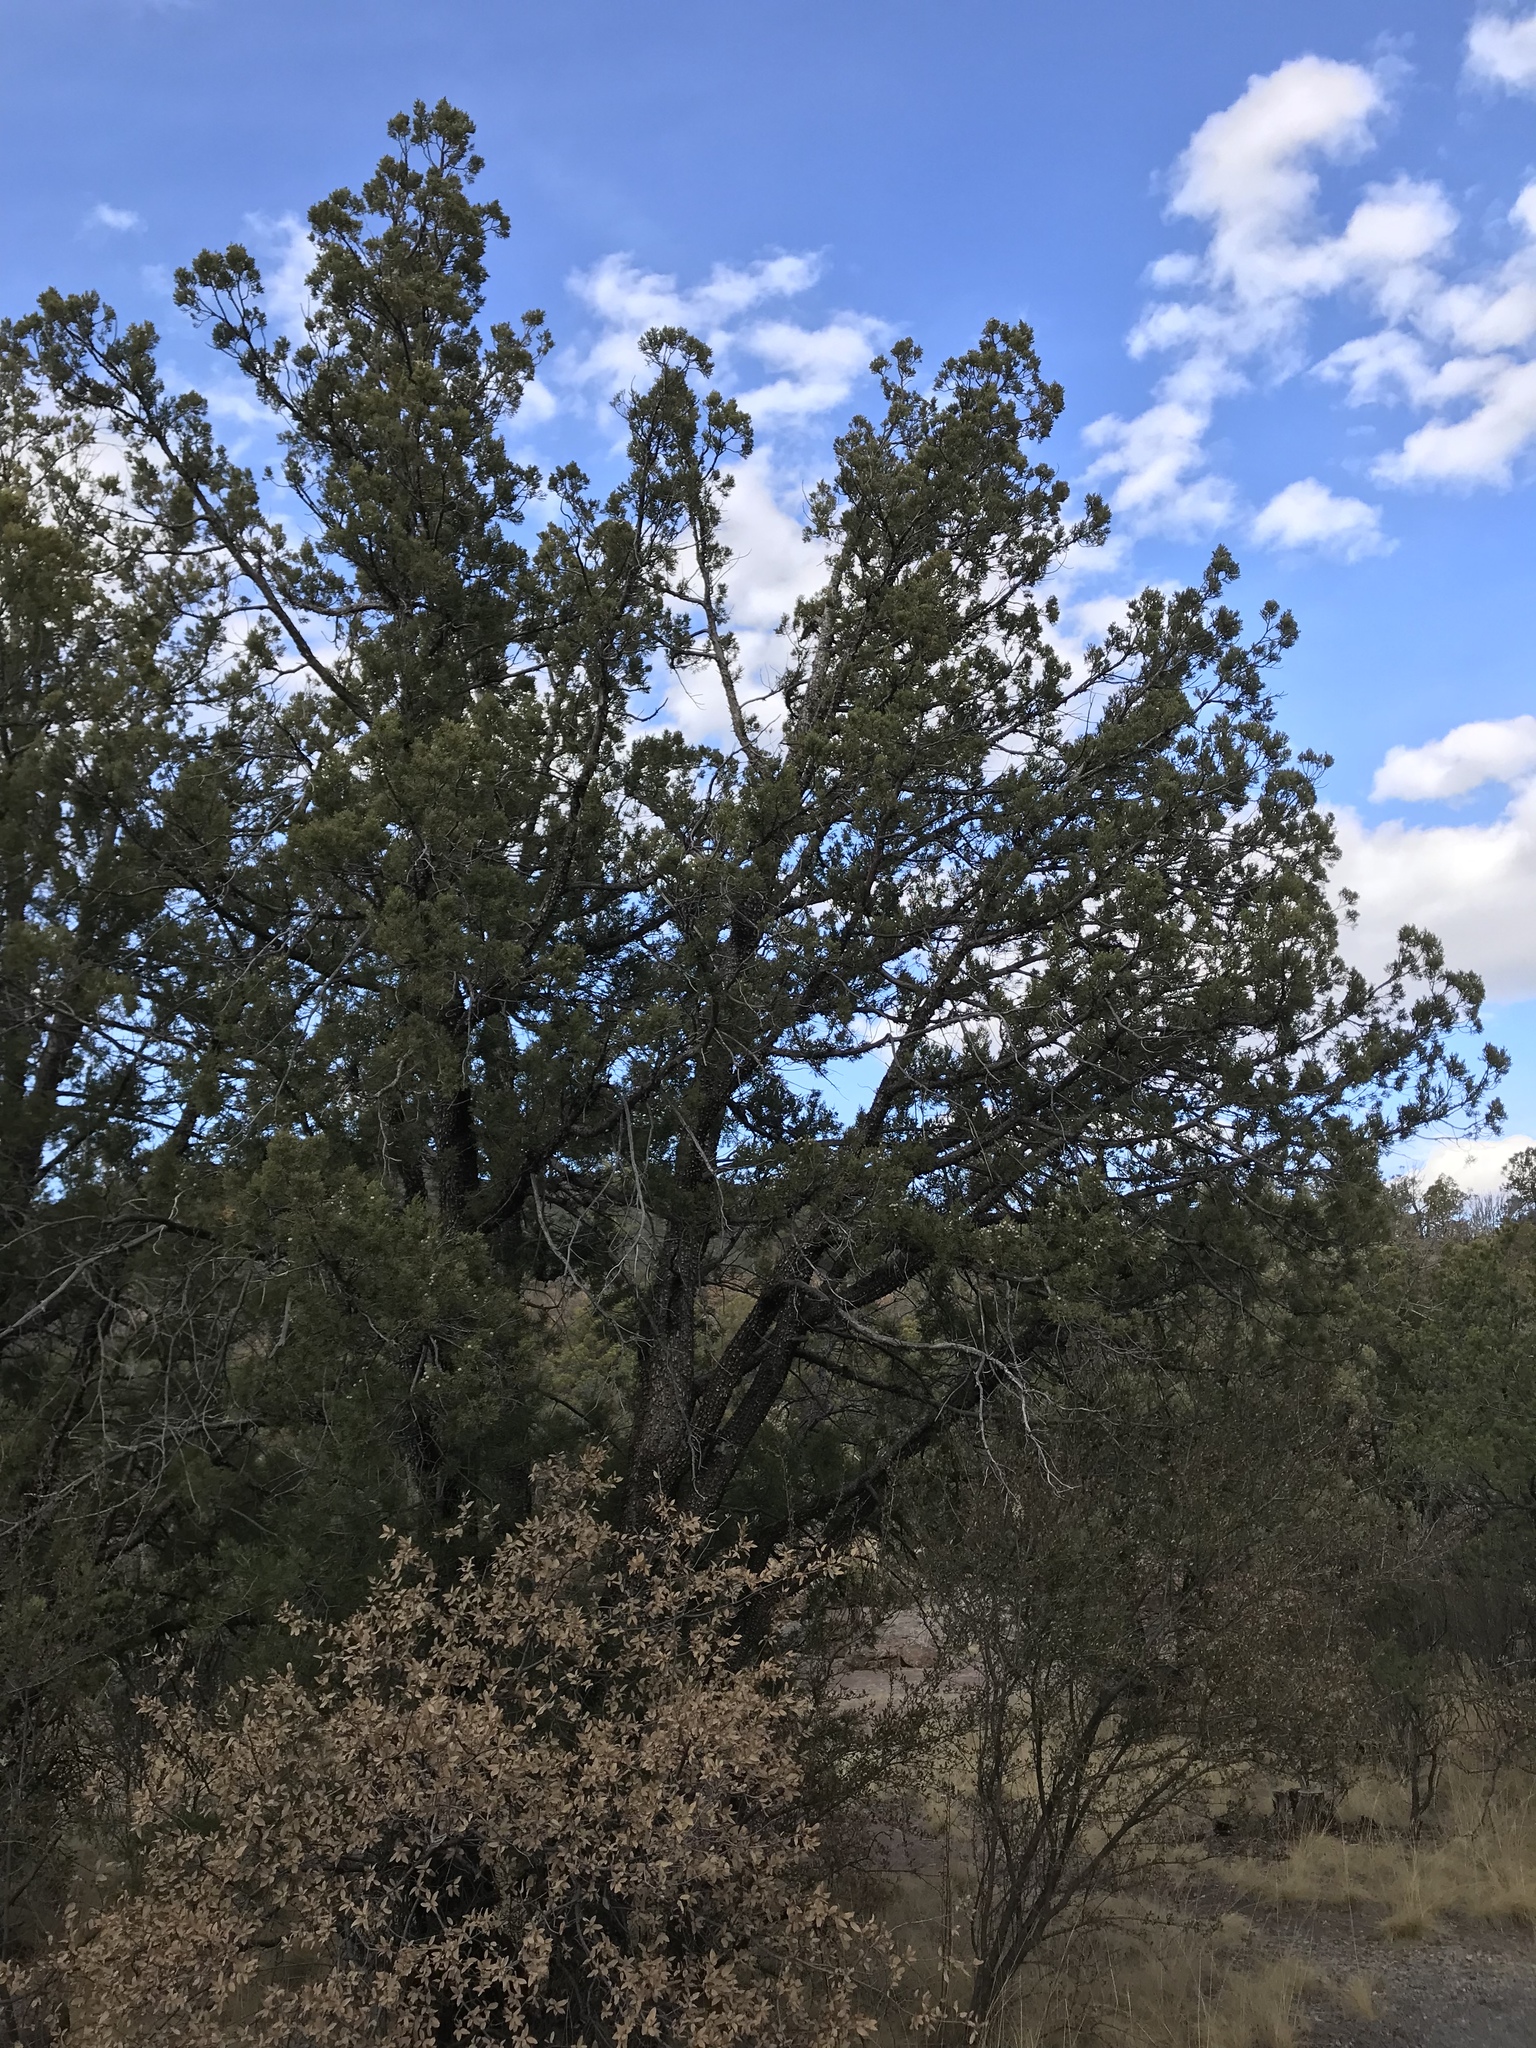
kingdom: Plantae
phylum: Tracheophyta
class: Pinopsida
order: Pinales
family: Cupressaceae
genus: Juniperus
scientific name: Juniperus deppeana
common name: Alligator juniper
